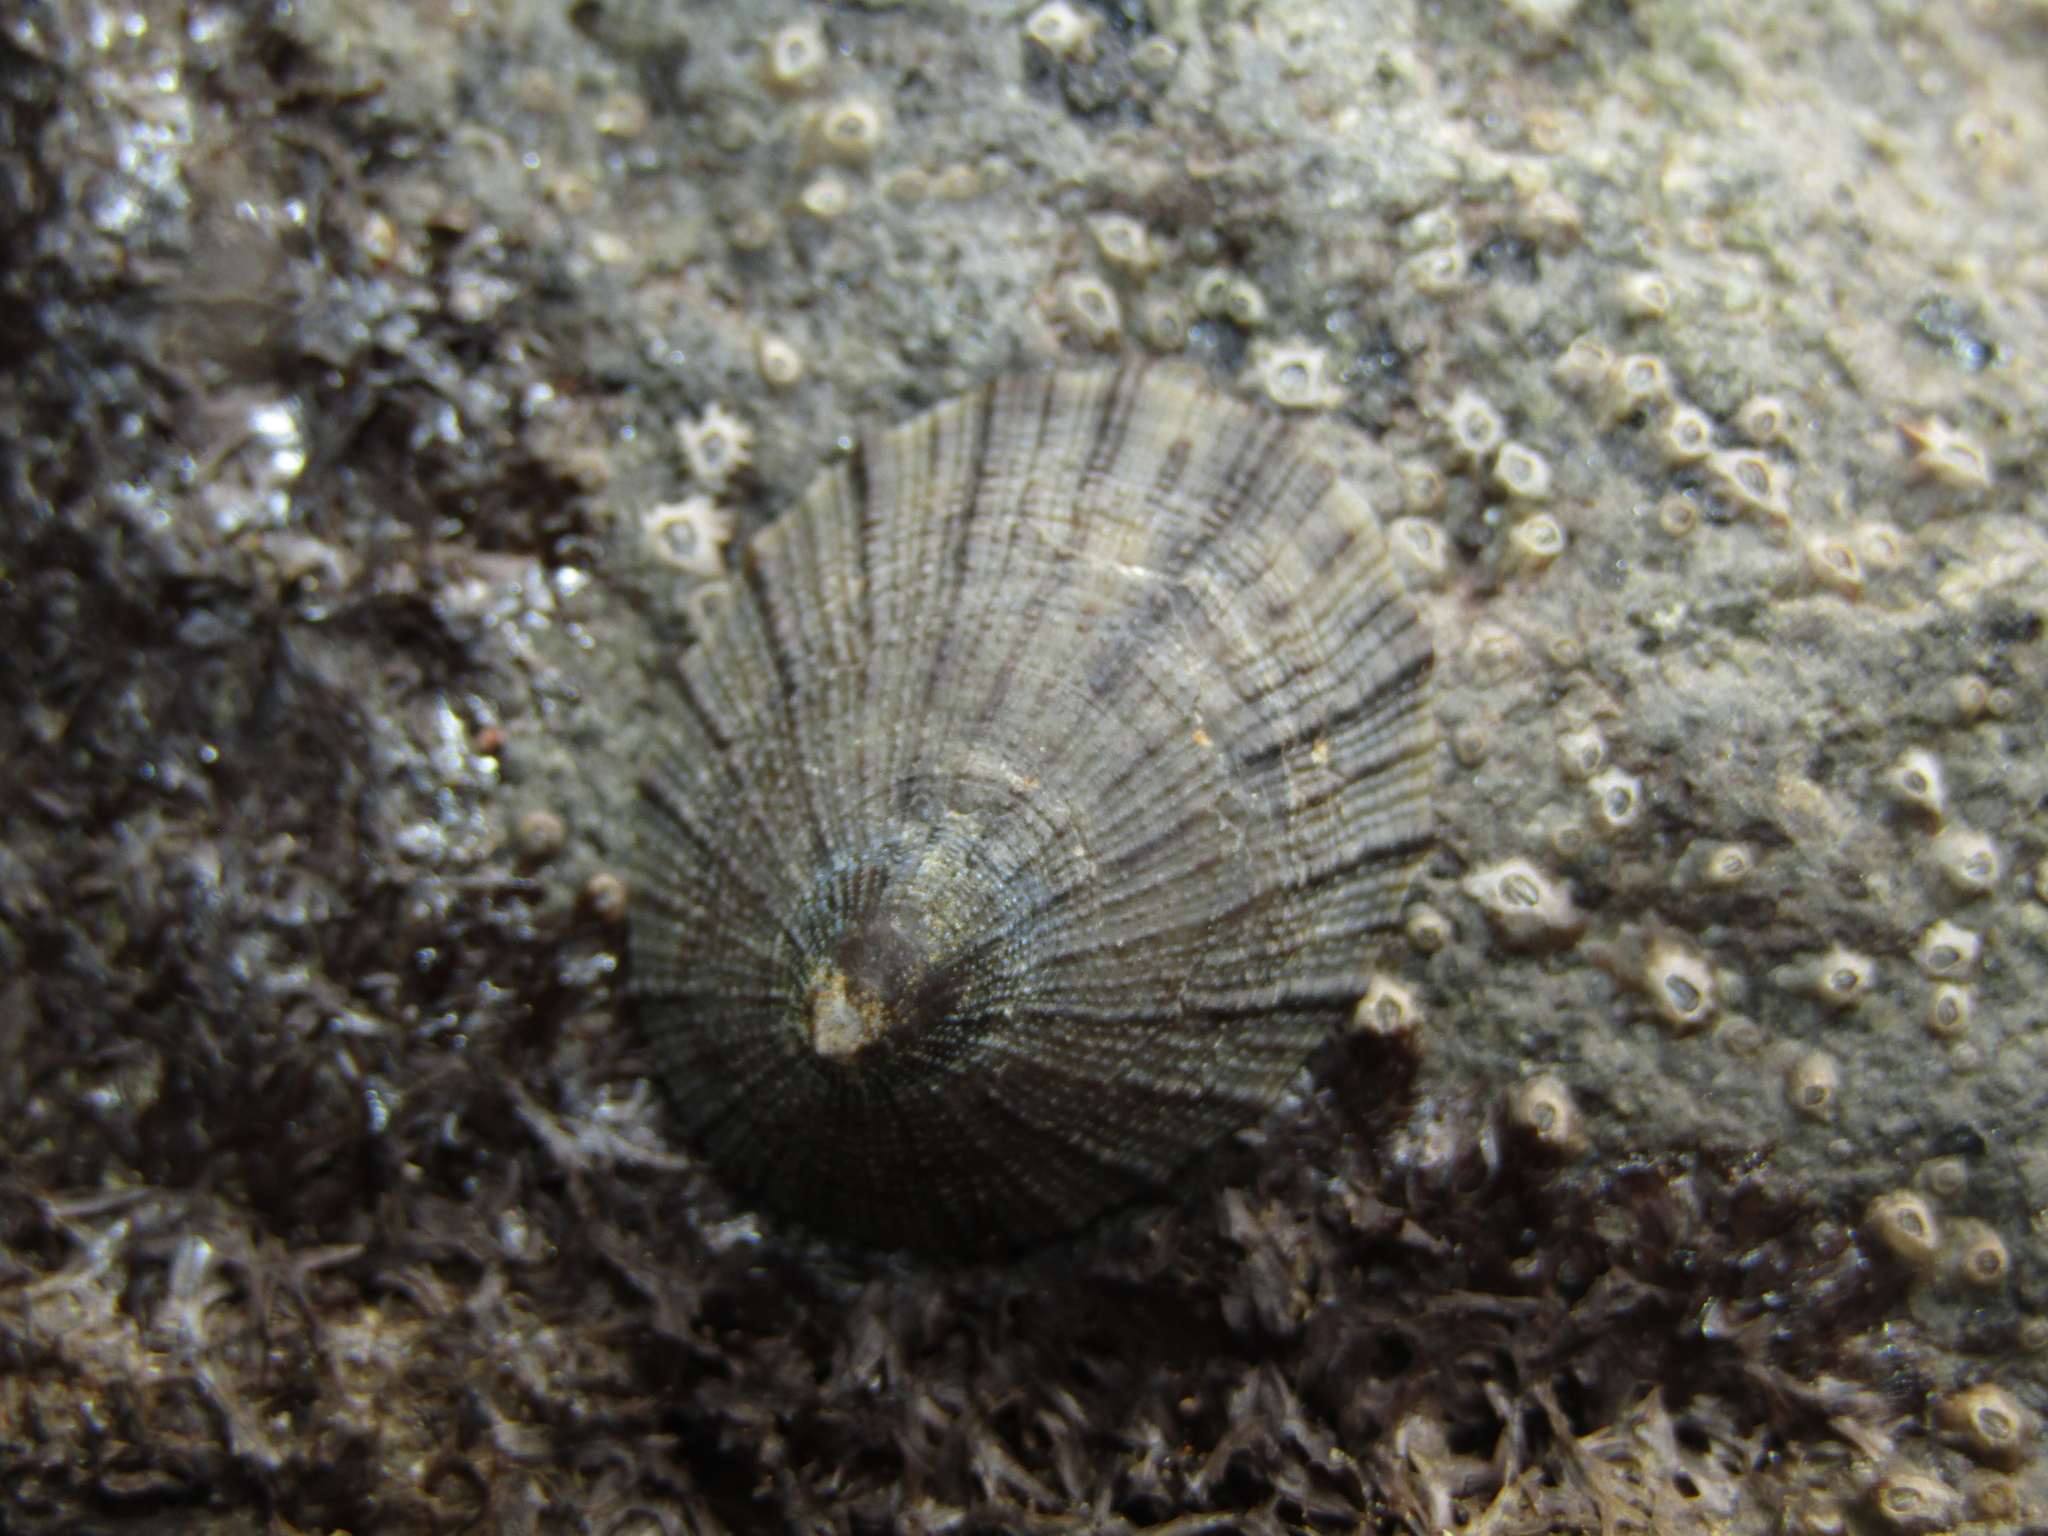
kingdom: Animalia
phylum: Mollusca
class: Gastropoda
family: Nacellidae
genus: Cellana
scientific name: Cellana radians
